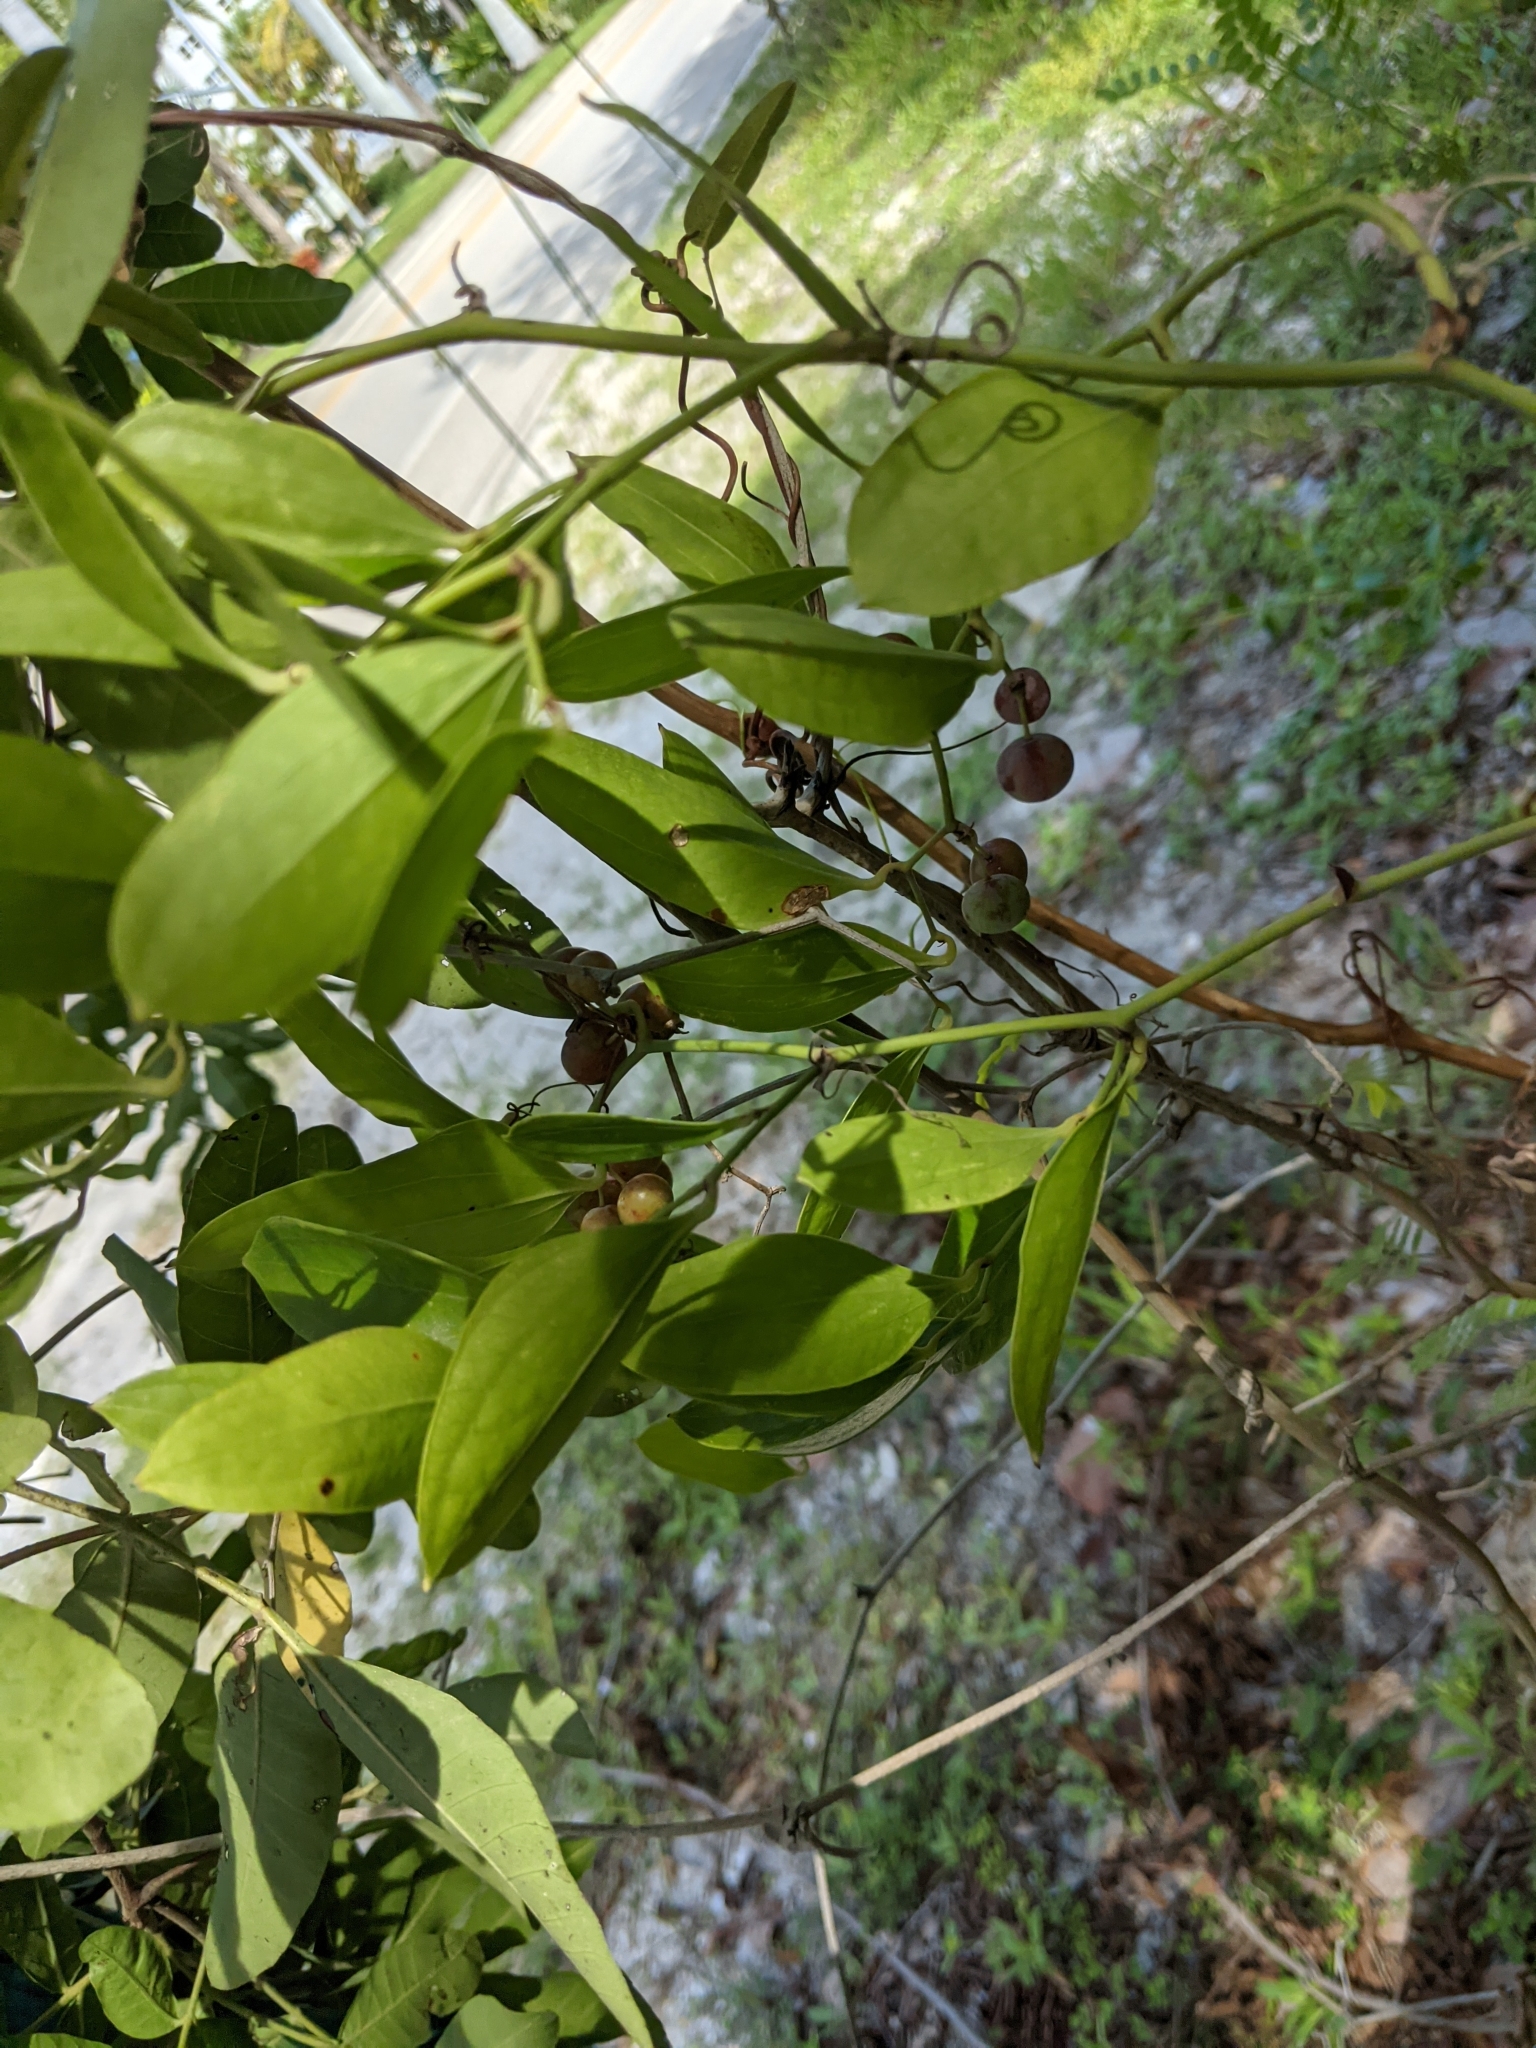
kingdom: Plantae
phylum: Tracheophyta
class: Liliopsida
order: Liliales
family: Smilacaceae
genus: Smilax
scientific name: Smilax auriculata
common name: Wild bamboo
